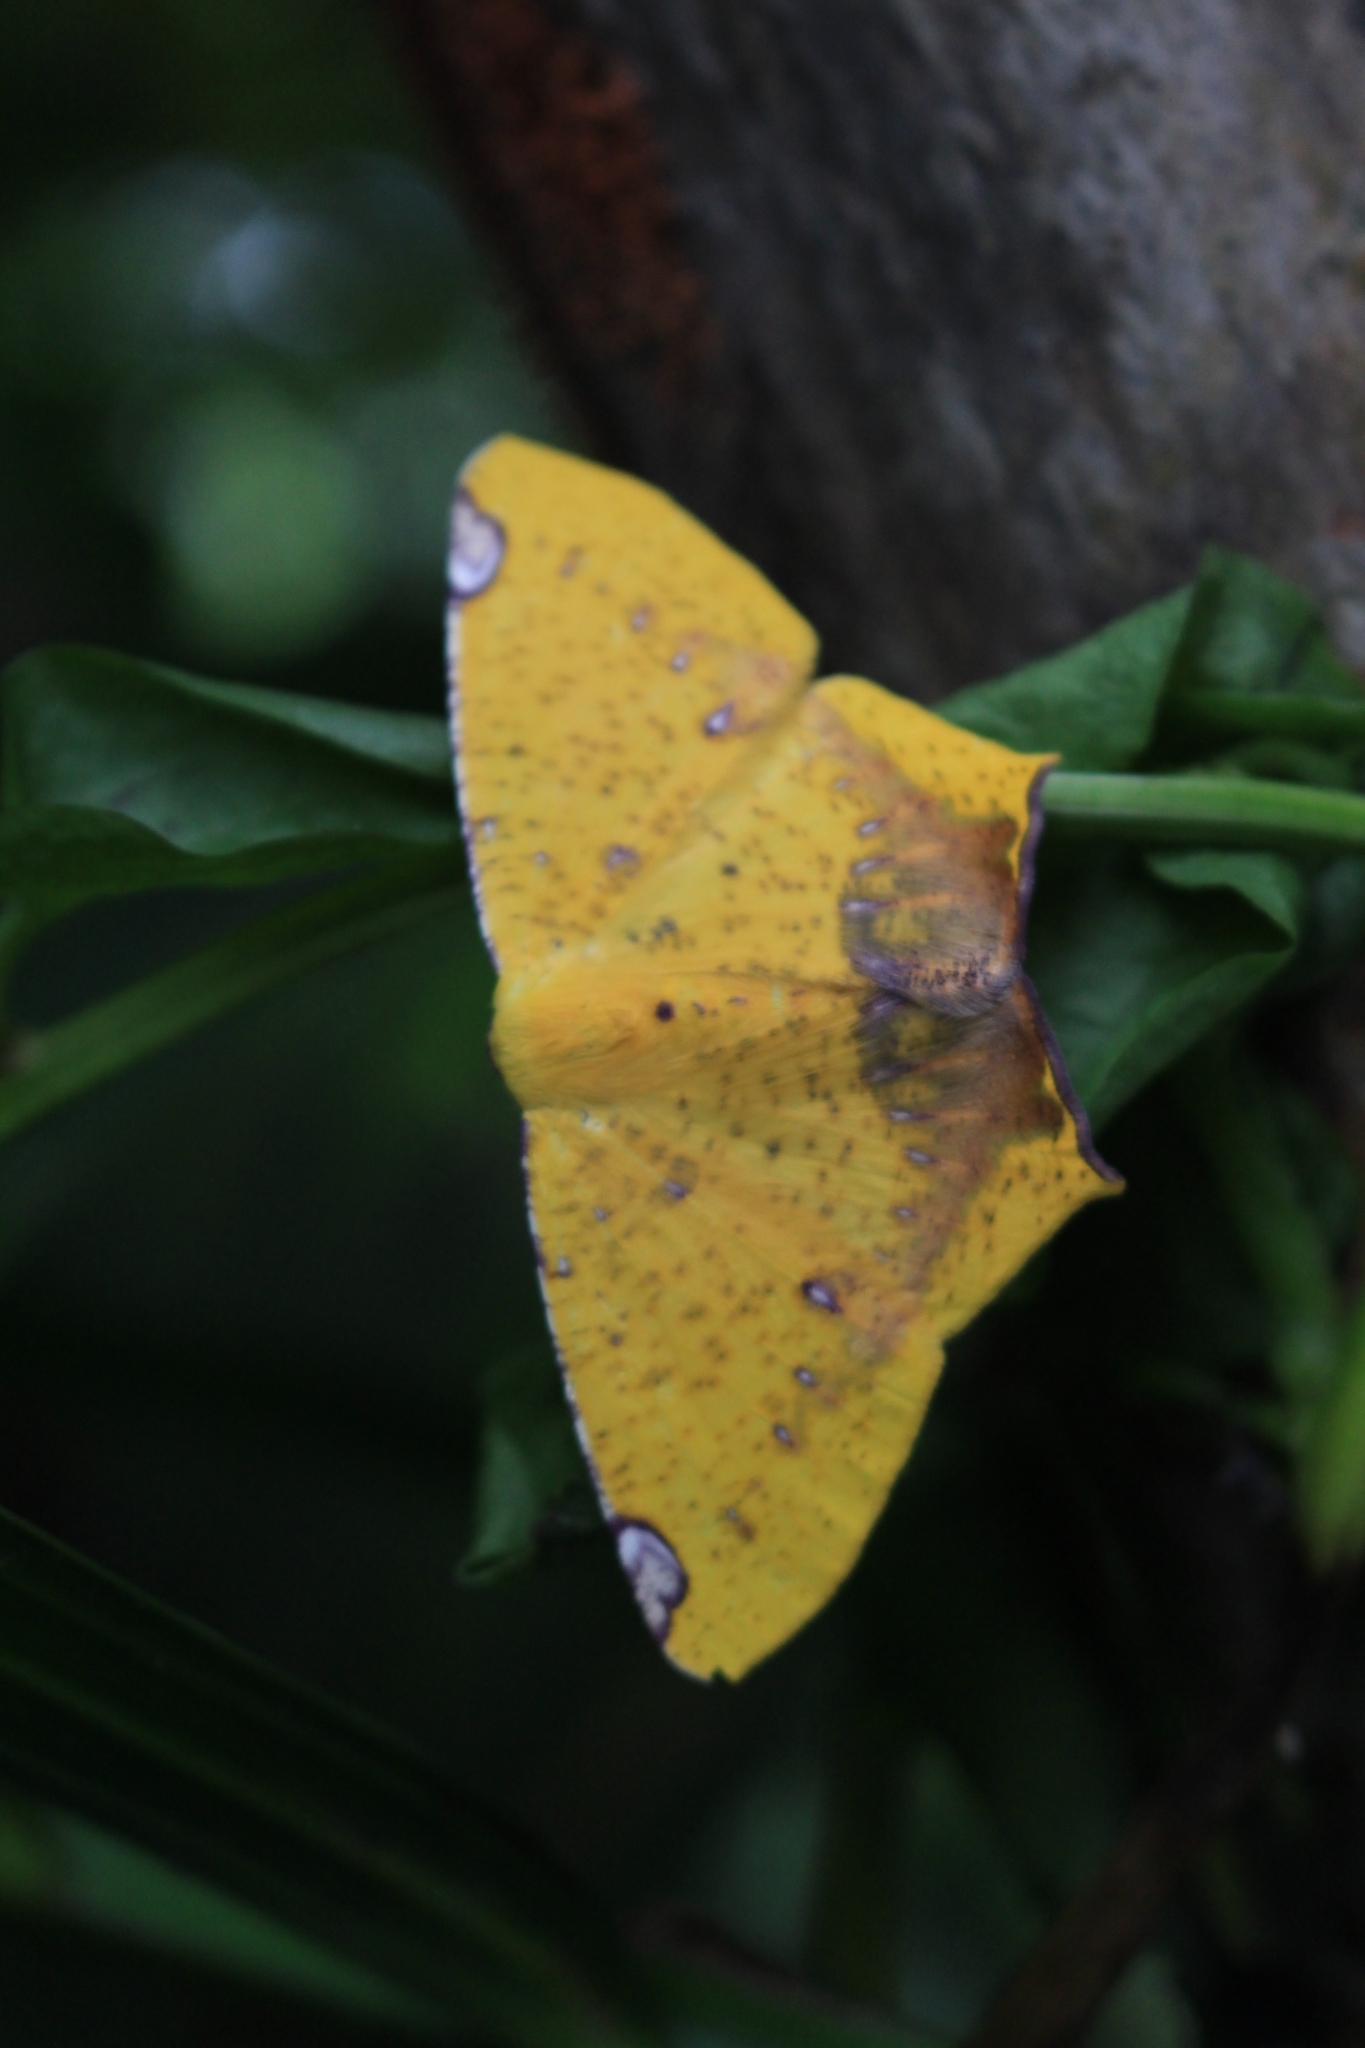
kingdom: Animalia
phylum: Arthropoda
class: Insecta
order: Lepidoptera
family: Geometridae
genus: Nepheloleuca
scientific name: Nepheloleuca politia
